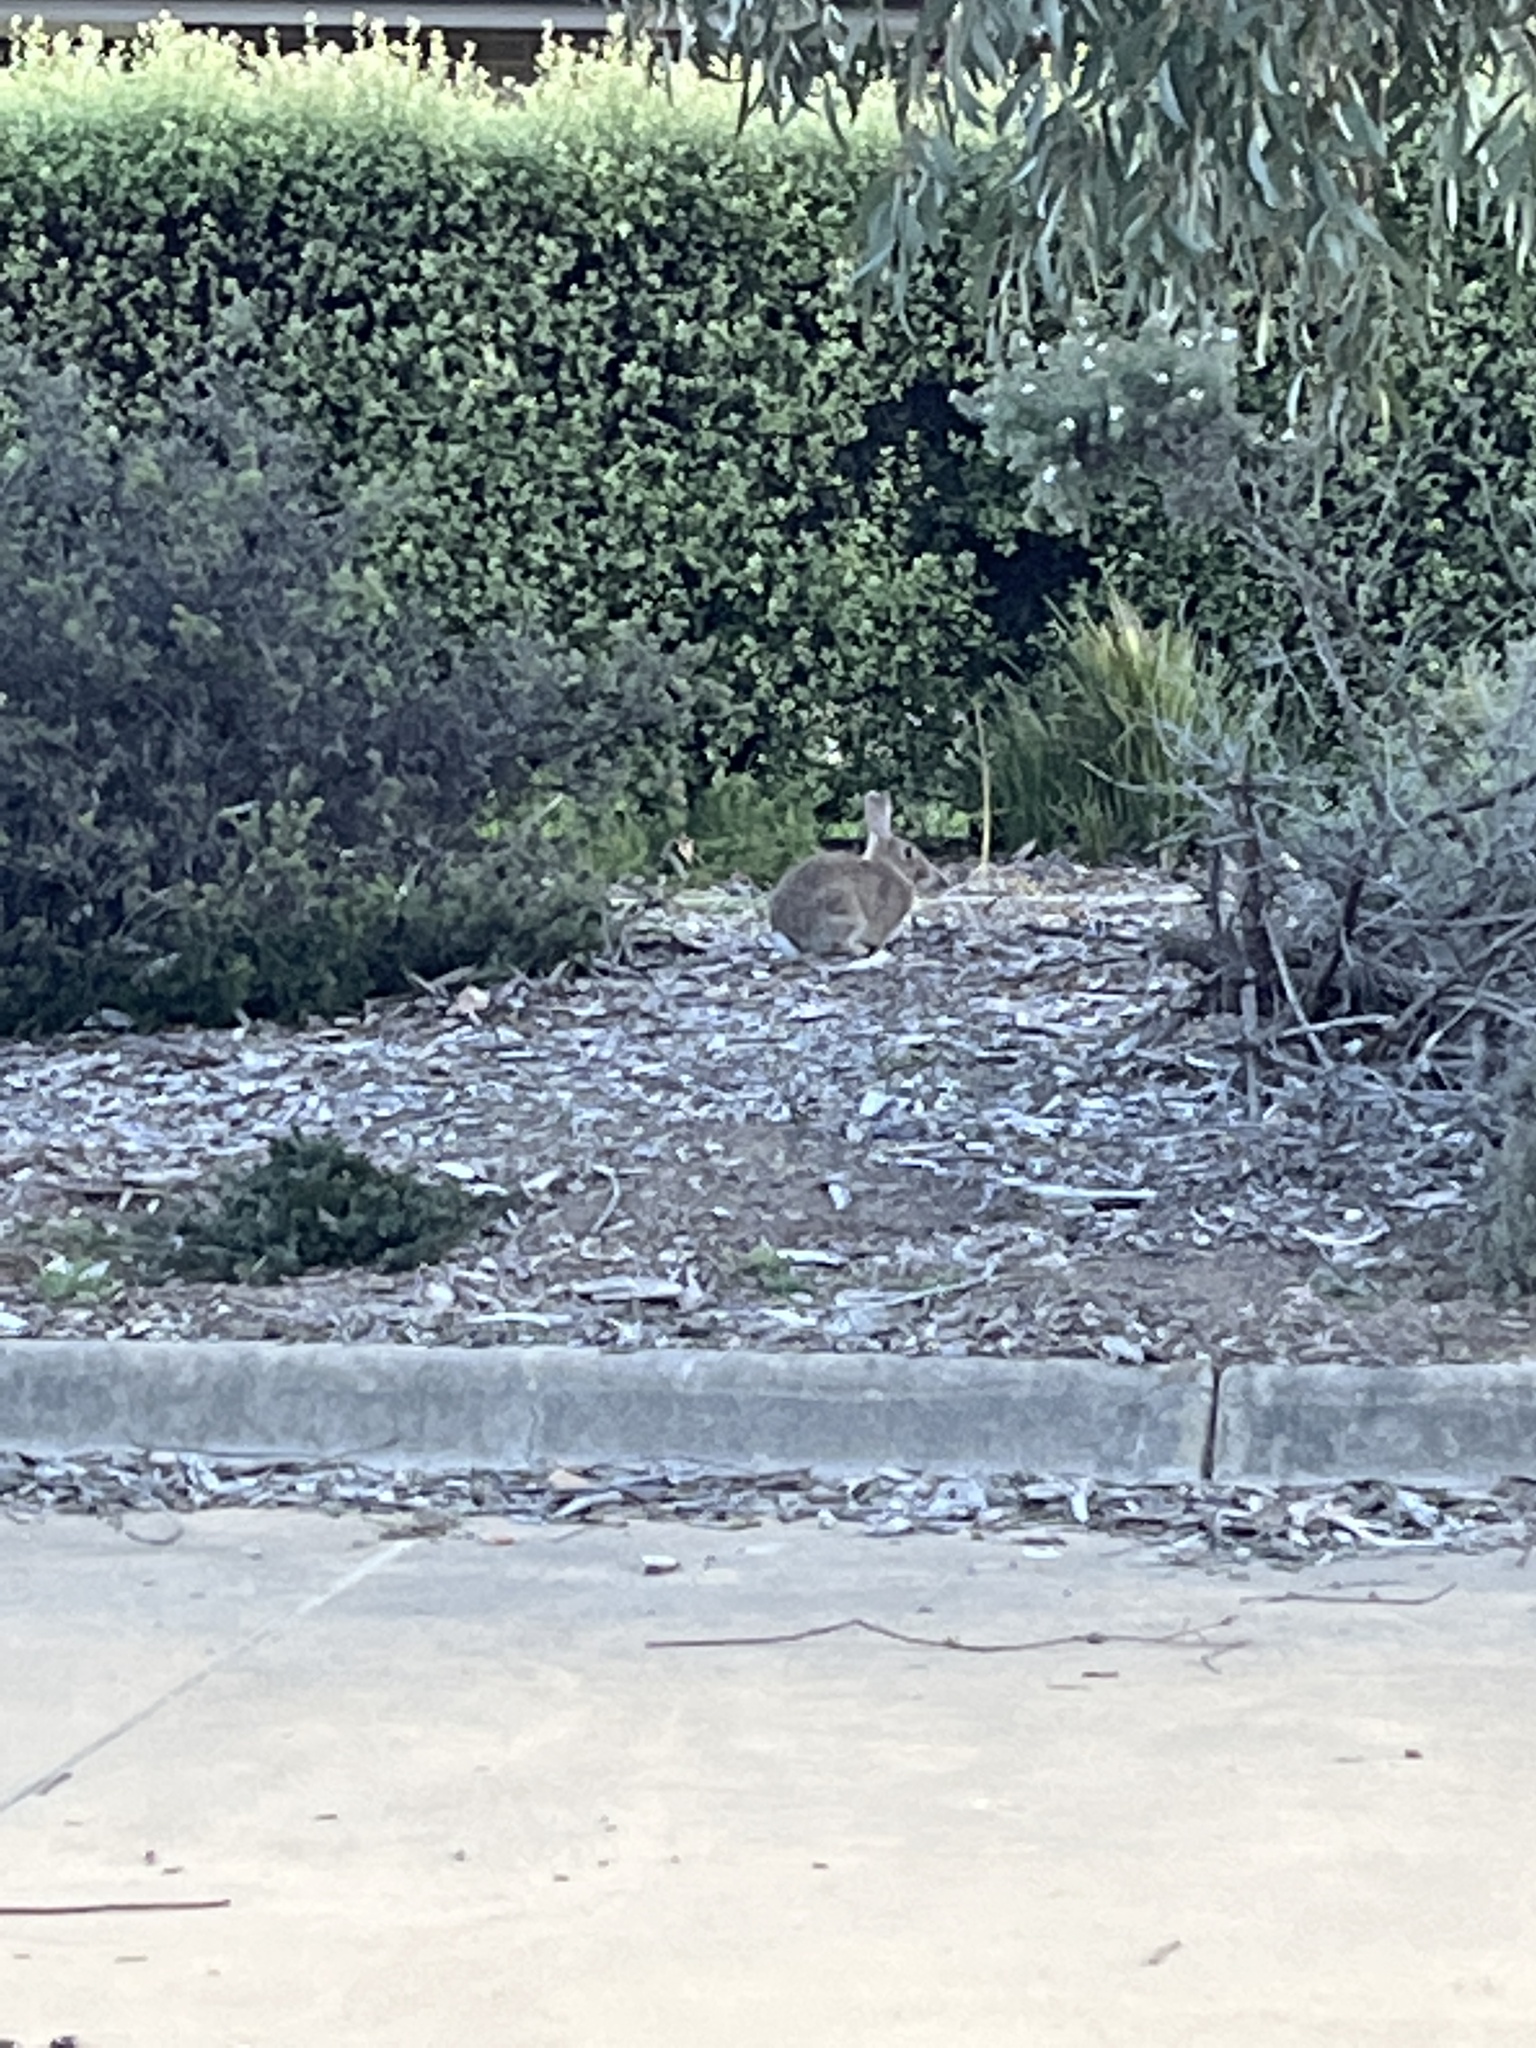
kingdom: Animalia
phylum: Chordata
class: Mammalia
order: Lagomorpha
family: Leporidae
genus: Oryctolagus
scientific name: Oryctolagus cuniculus
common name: European rabbit
